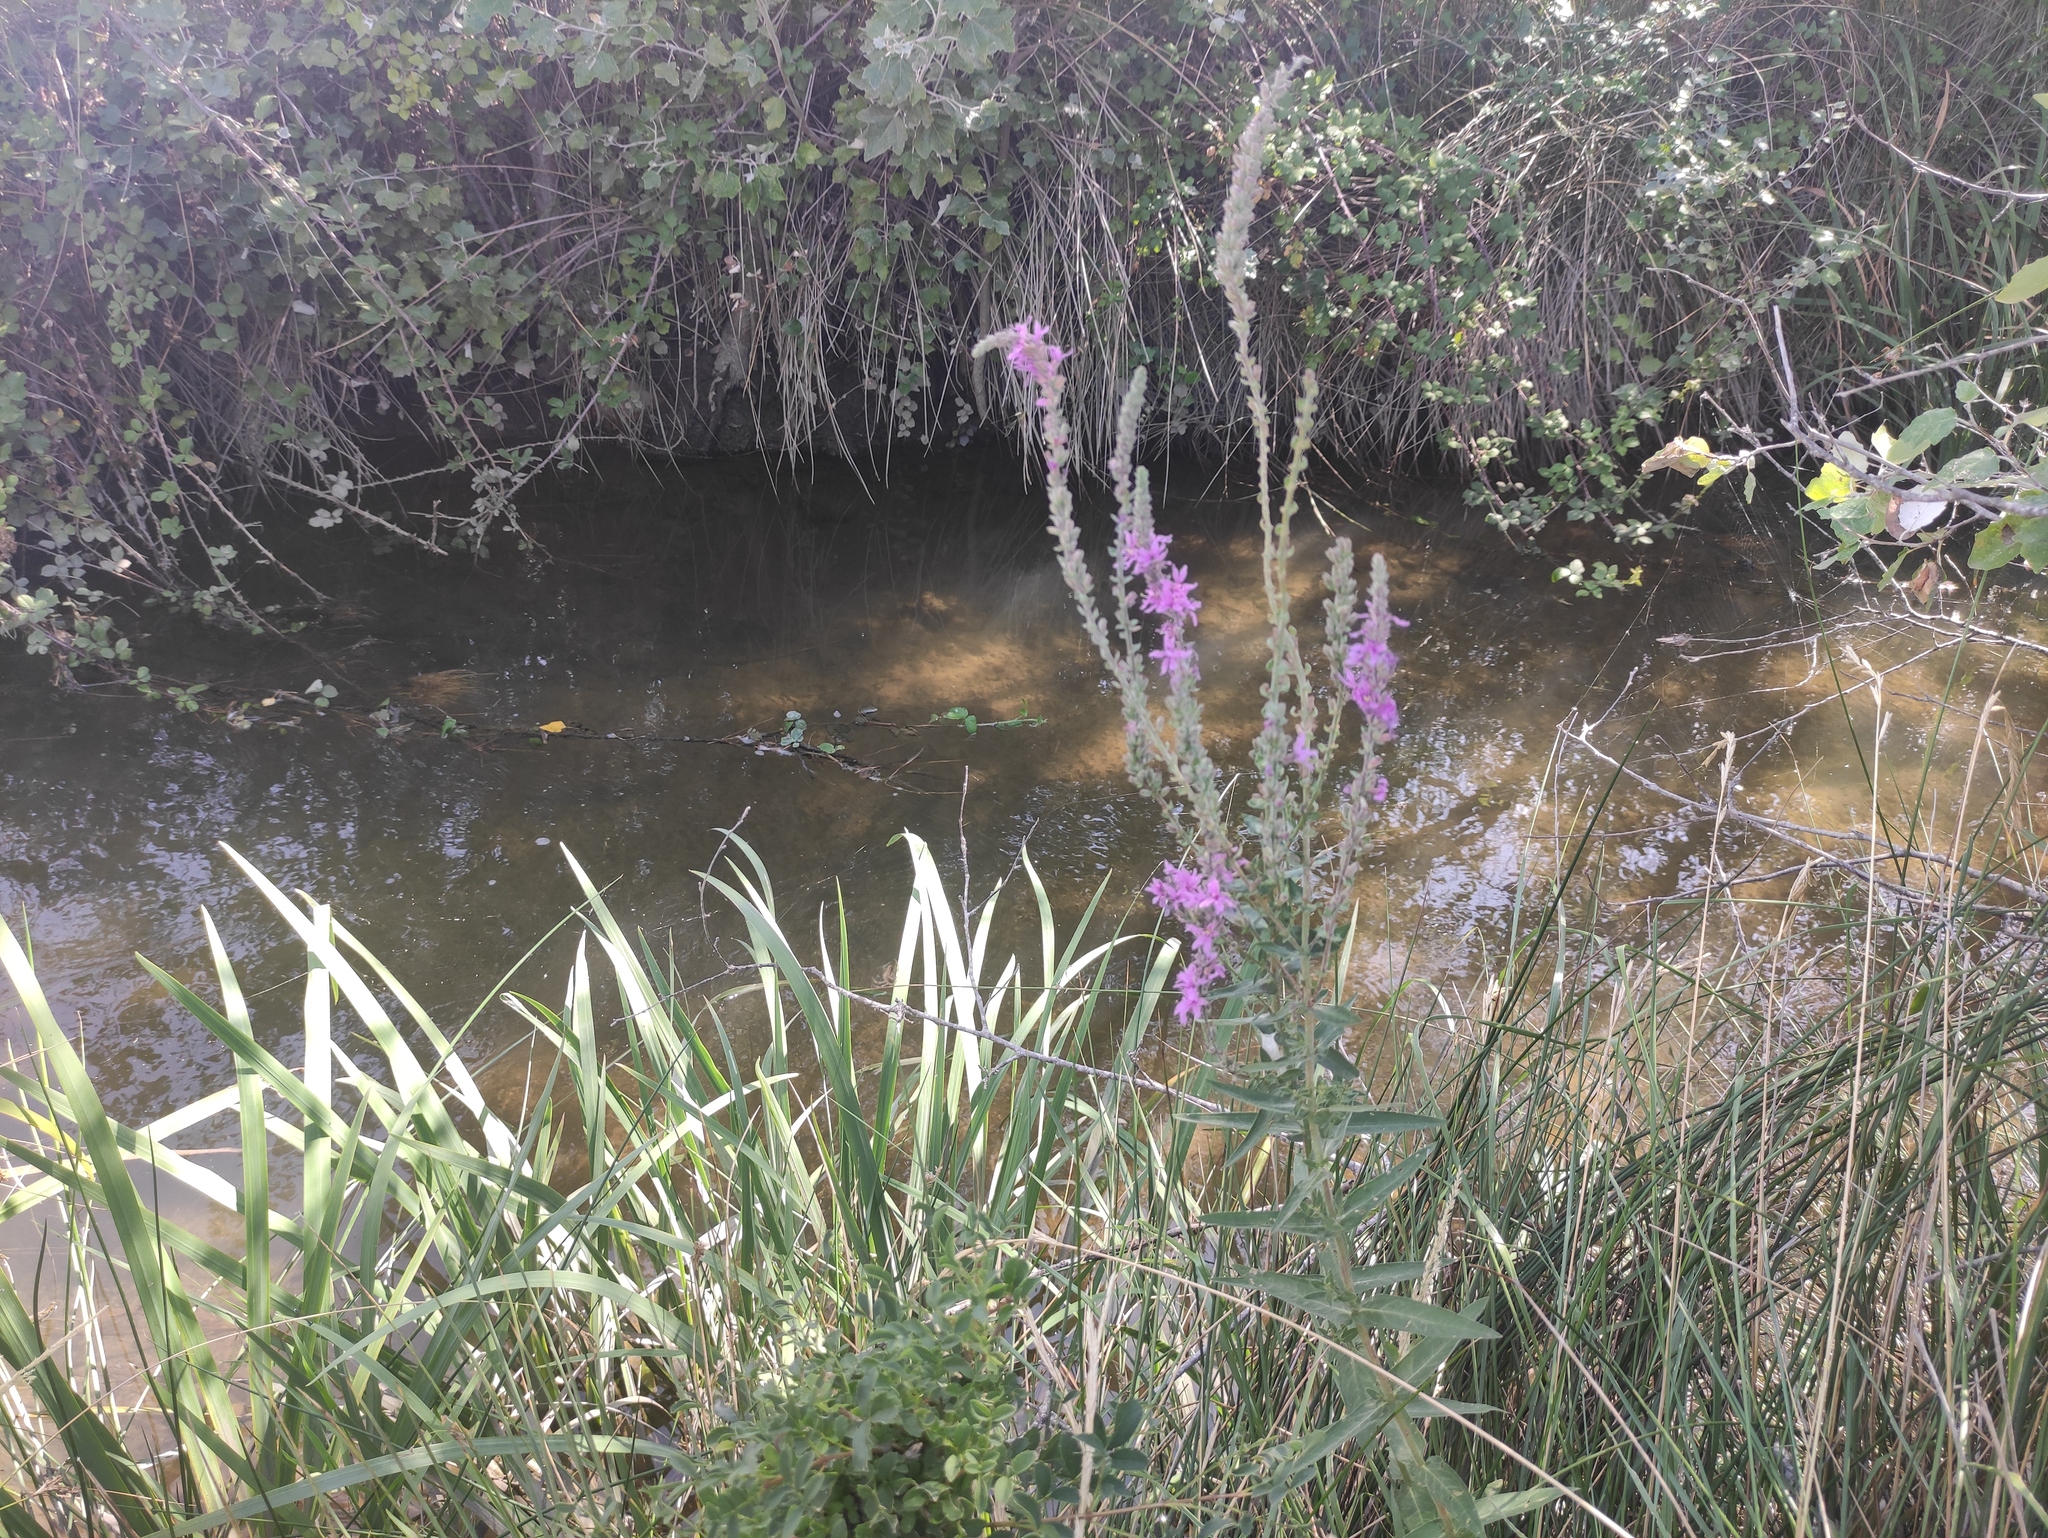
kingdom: Plantae
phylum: Tracheophyta
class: Magnoliopsida
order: Myrtales
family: Lythraceae
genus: Lythrum
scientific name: Lythrum salicaria
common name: Purple loosestrife
